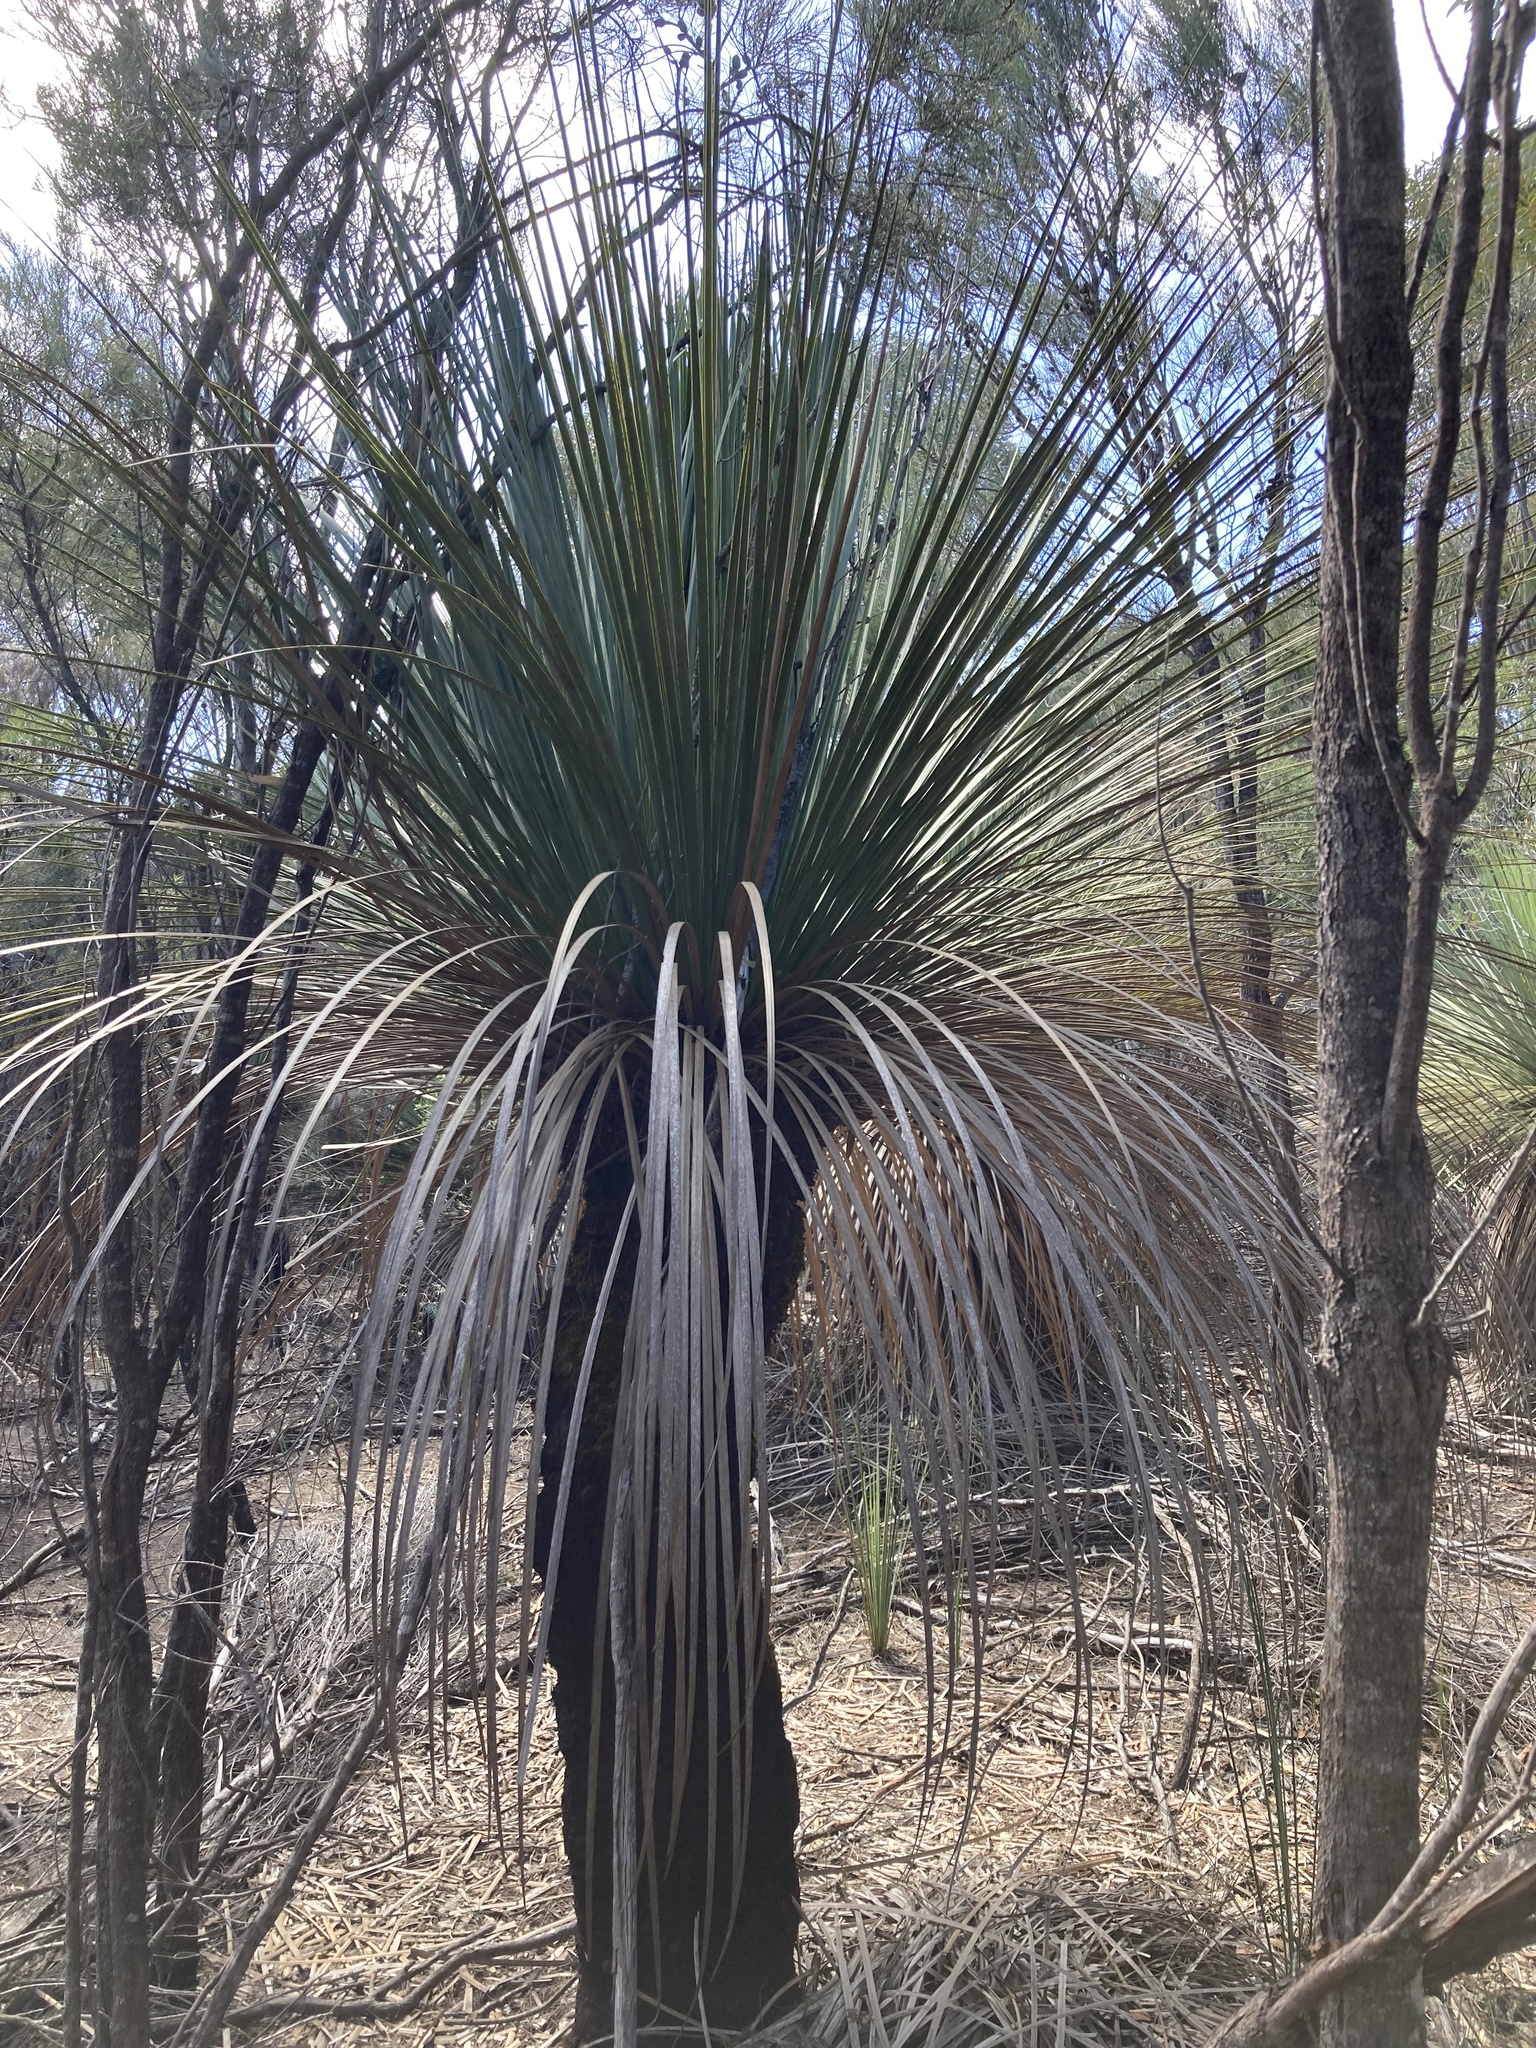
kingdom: Plantae
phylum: Tracheophyta
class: Liliopsida
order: Asparagales
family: Asphodelaceae
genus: Xanthorrhoea
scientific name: Xanthorrhoea semiplana
